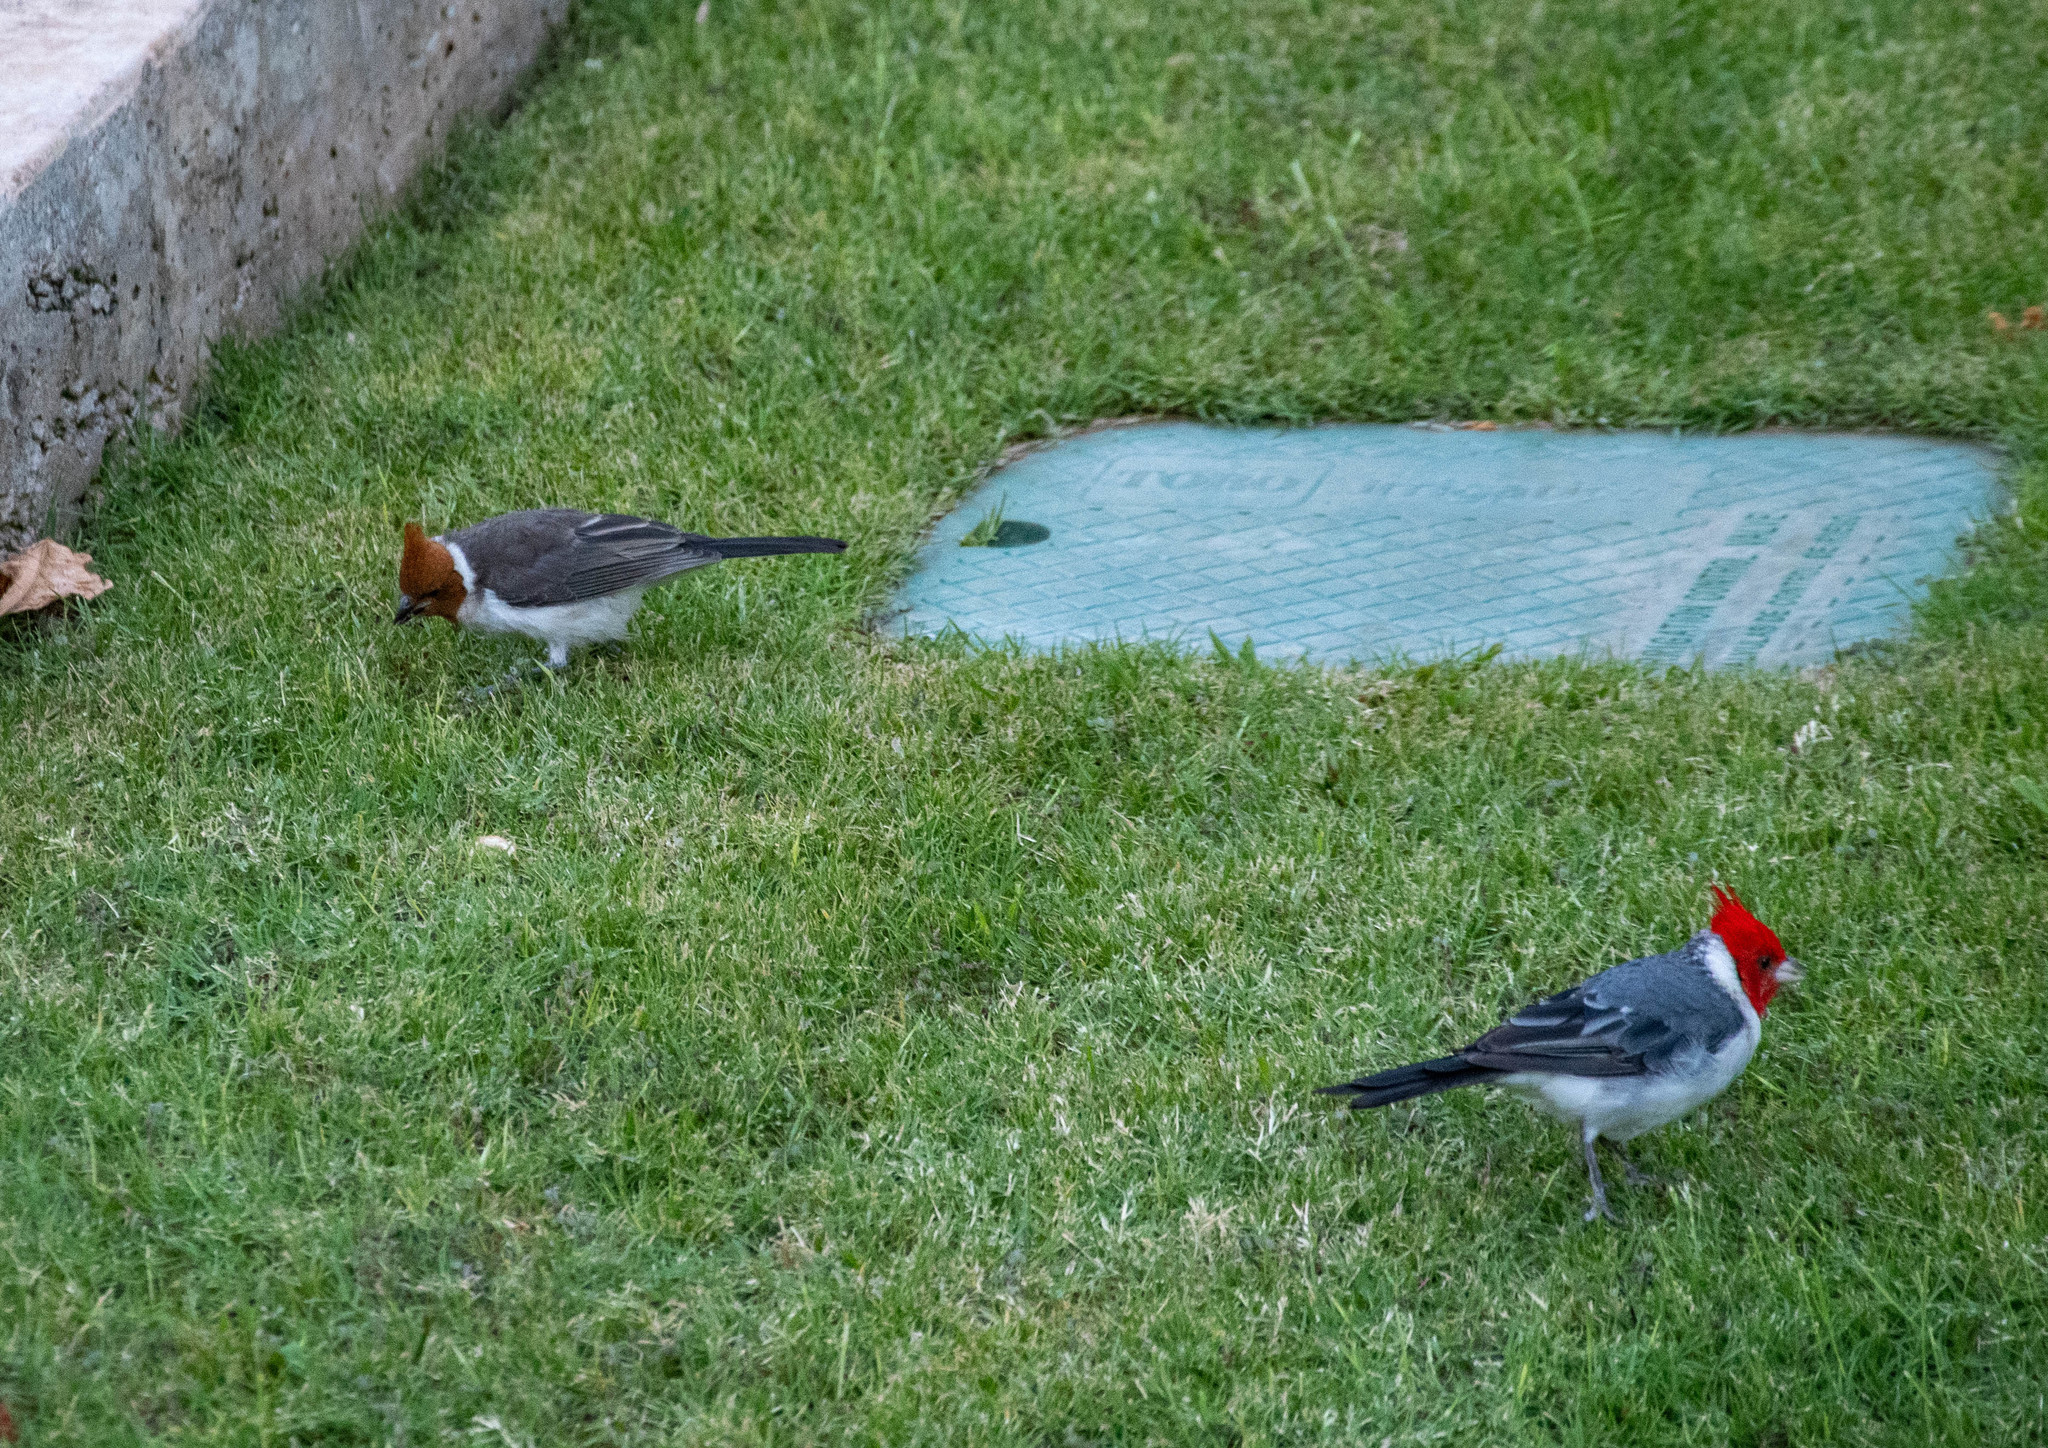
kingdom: Animalia
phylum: Chordata
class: Aves
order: Passeriformes
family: Thraupidae
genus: Paroaria
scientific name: Paroaria coronata
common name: Red-crested cardinal
